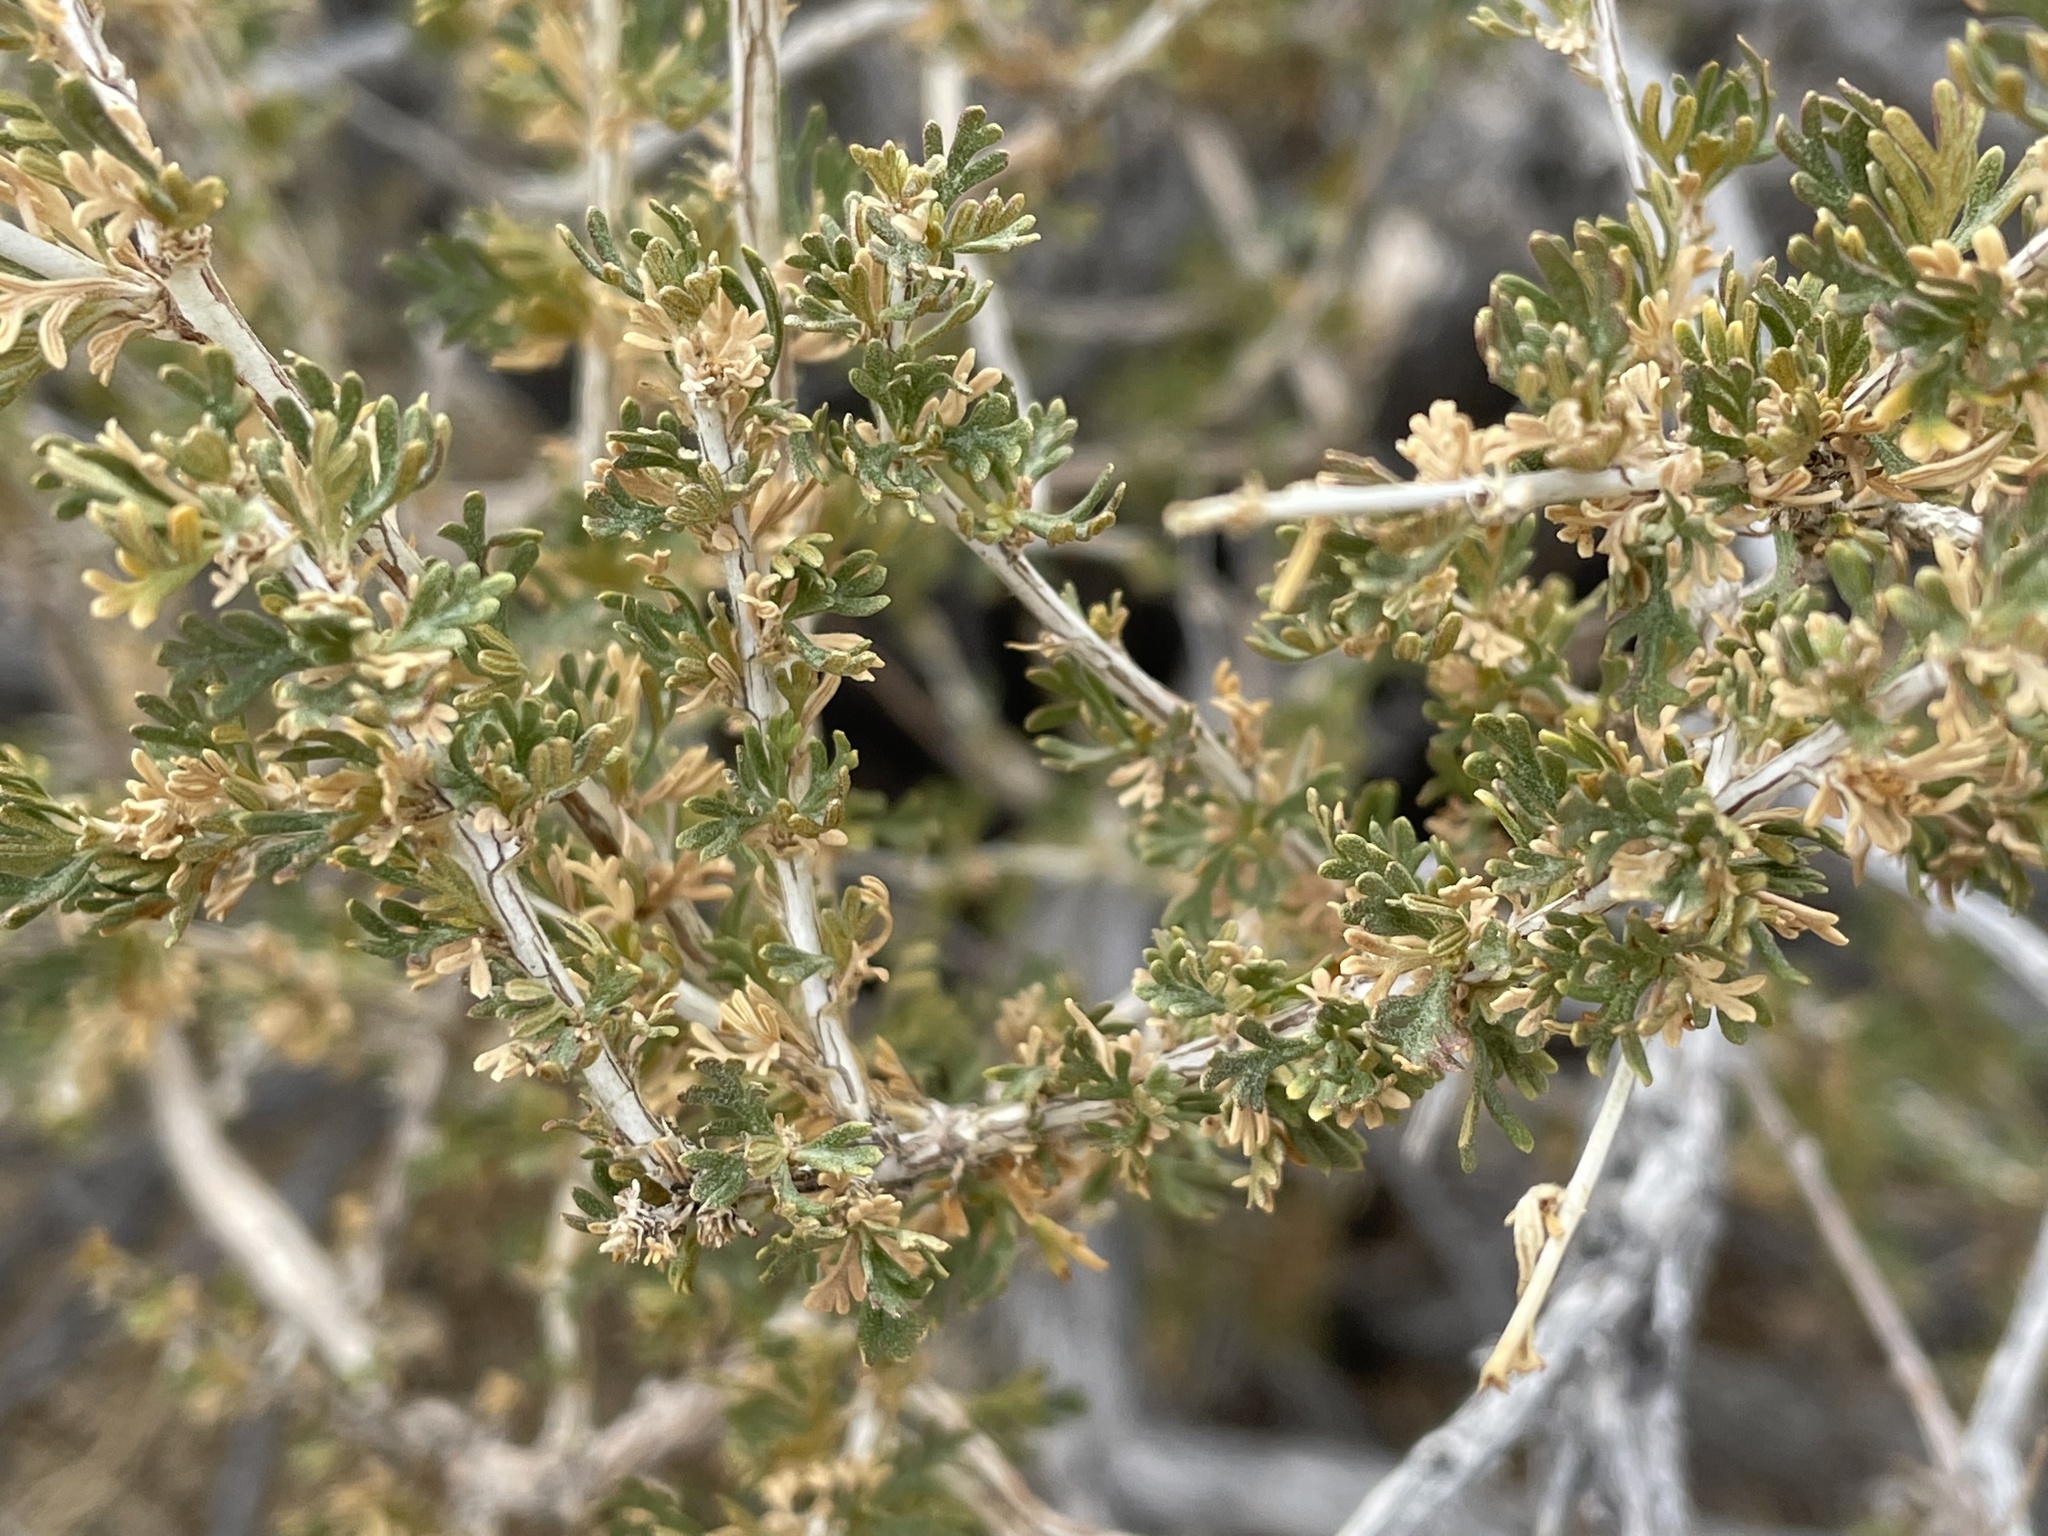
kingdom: Plantae
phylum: Tracheophyta
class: Magnoliopsida
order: Rosales
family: Rosaceae
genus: Fallugia
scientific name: Fallugia paradoxa
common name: Apache-plume
